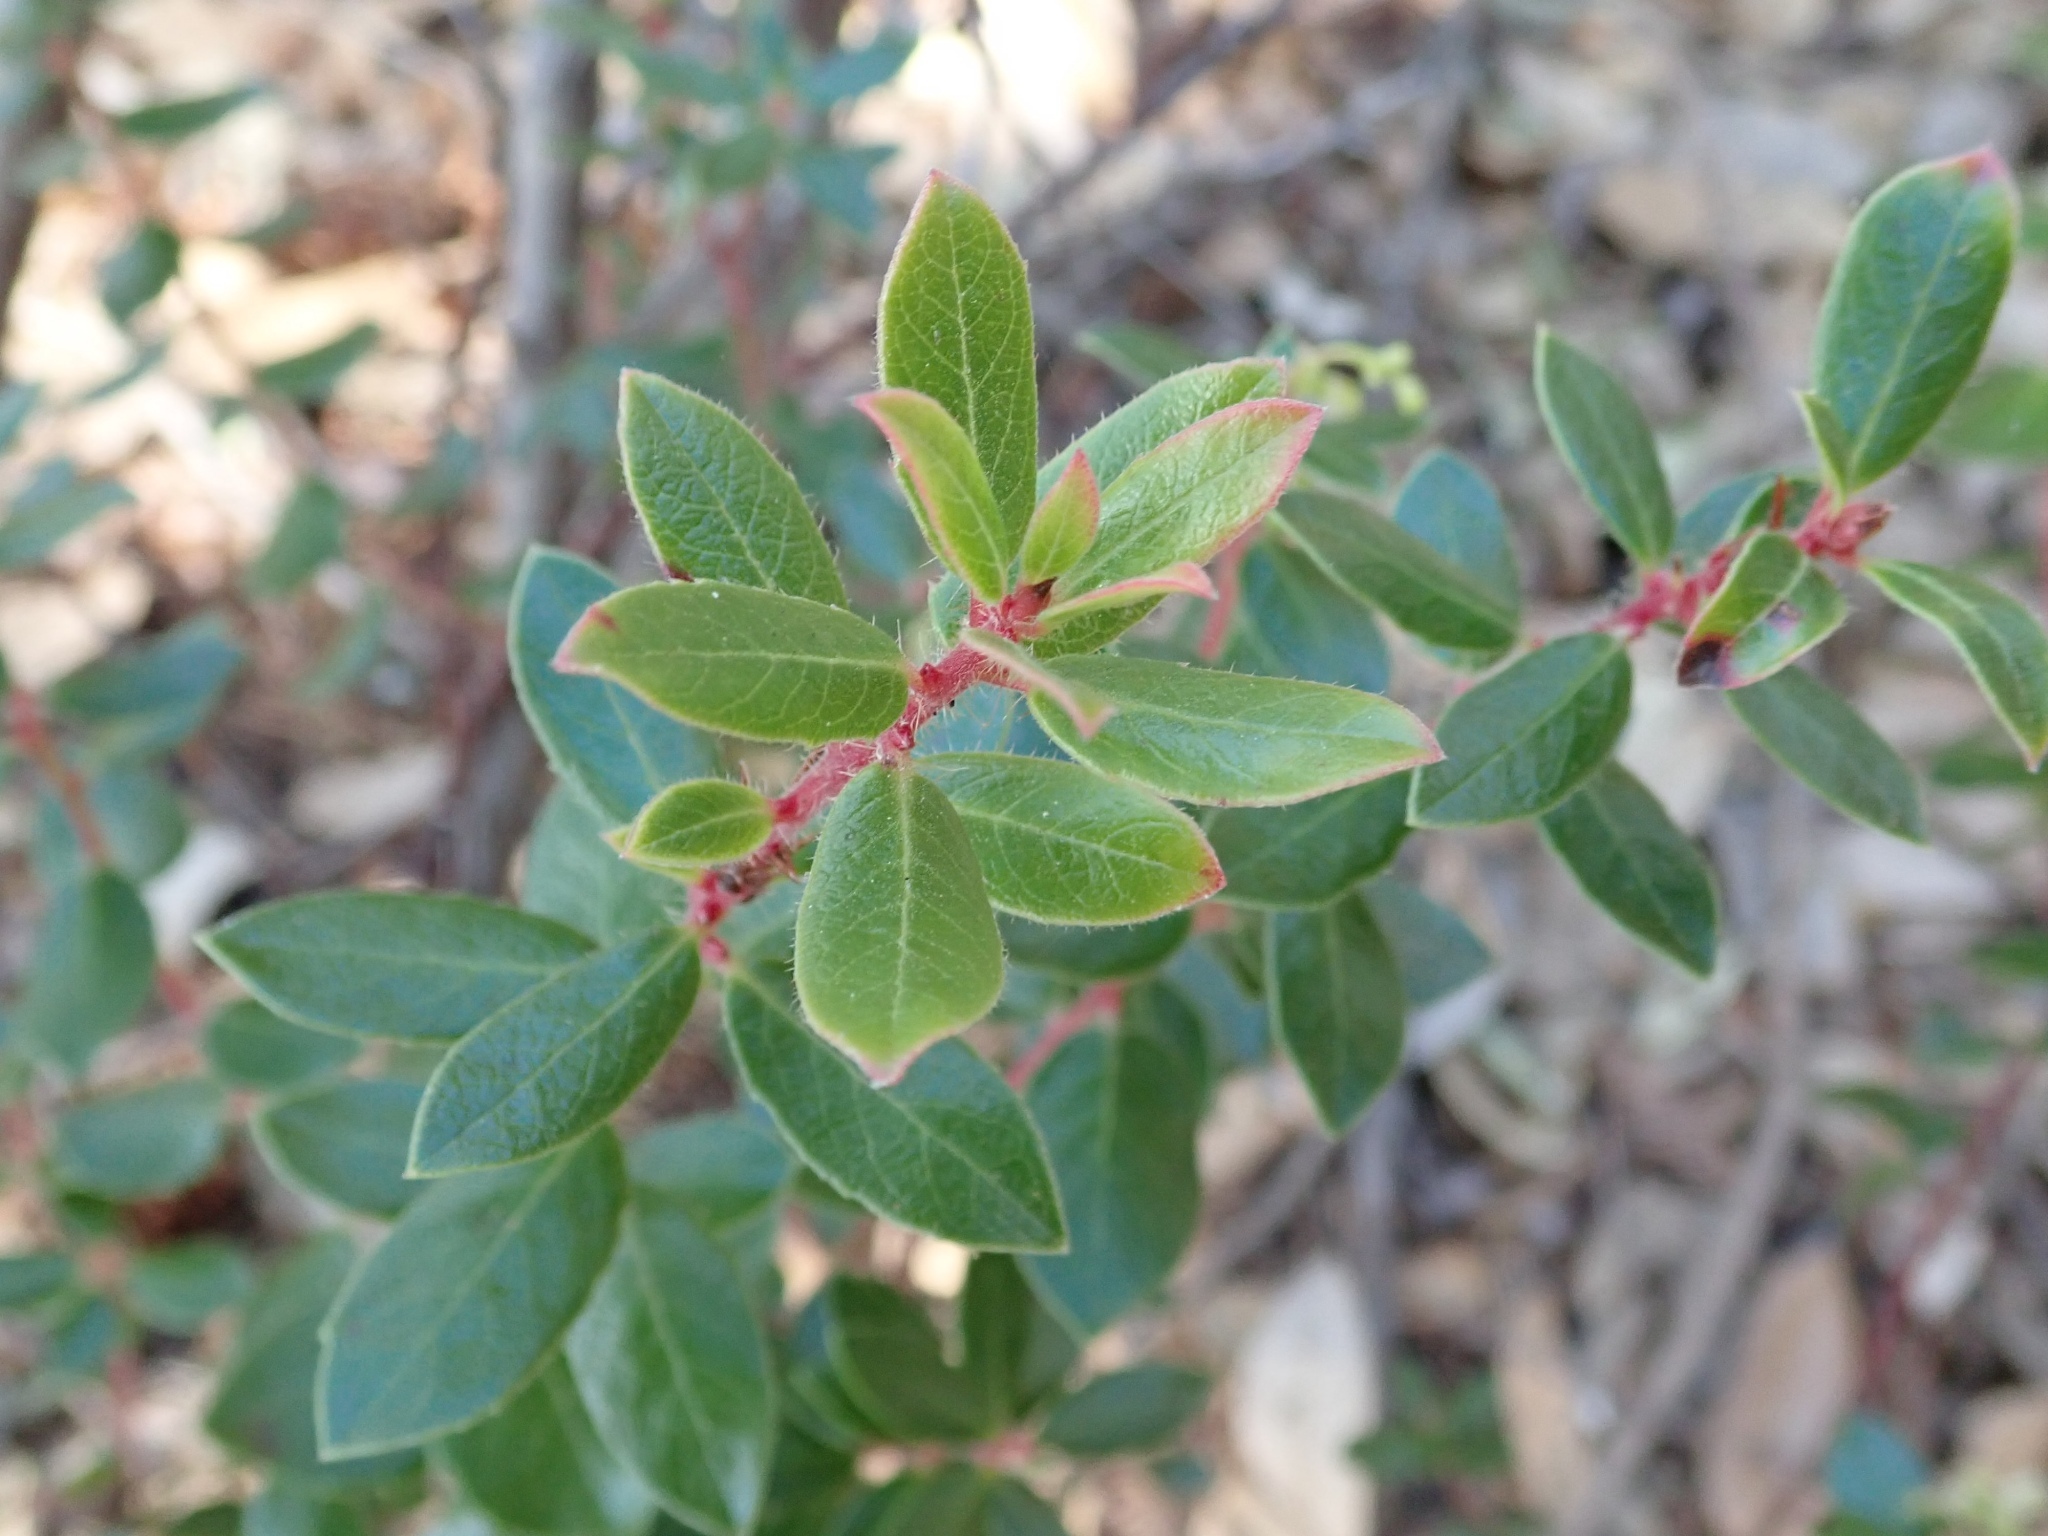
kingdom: Plantae
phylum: Tracheophyta
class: Magnoliopsida
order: Ericales
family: Ericaceae
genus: Arctostaphylos
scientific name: Arctostaphylos nummularia
